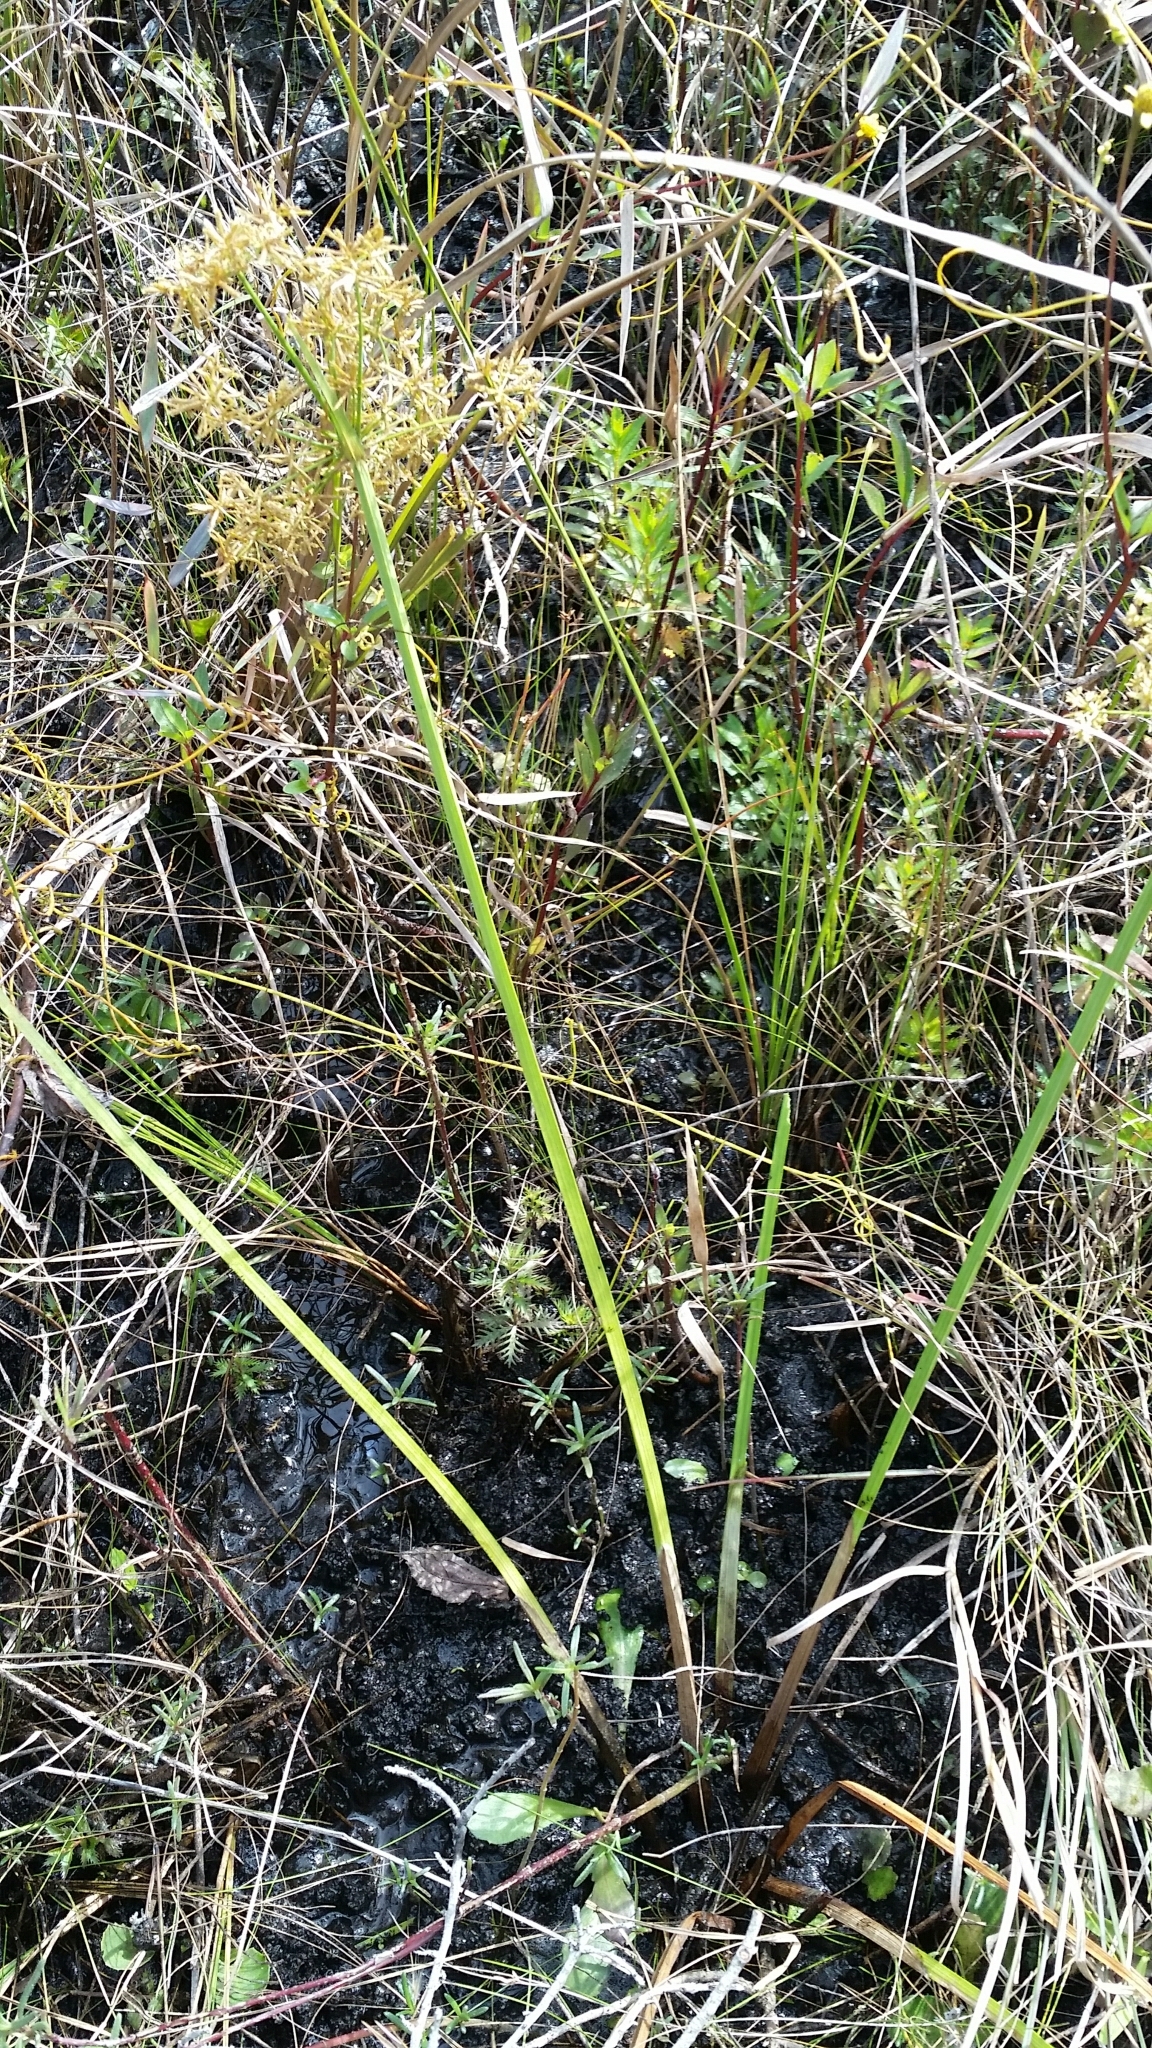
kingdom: Plantae
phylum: Tracheophyta
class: Liliopsida
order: Poales
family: Cyperaceae
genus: Cyperus
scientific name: Cyperus haspan
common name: Haspan flatsedge
